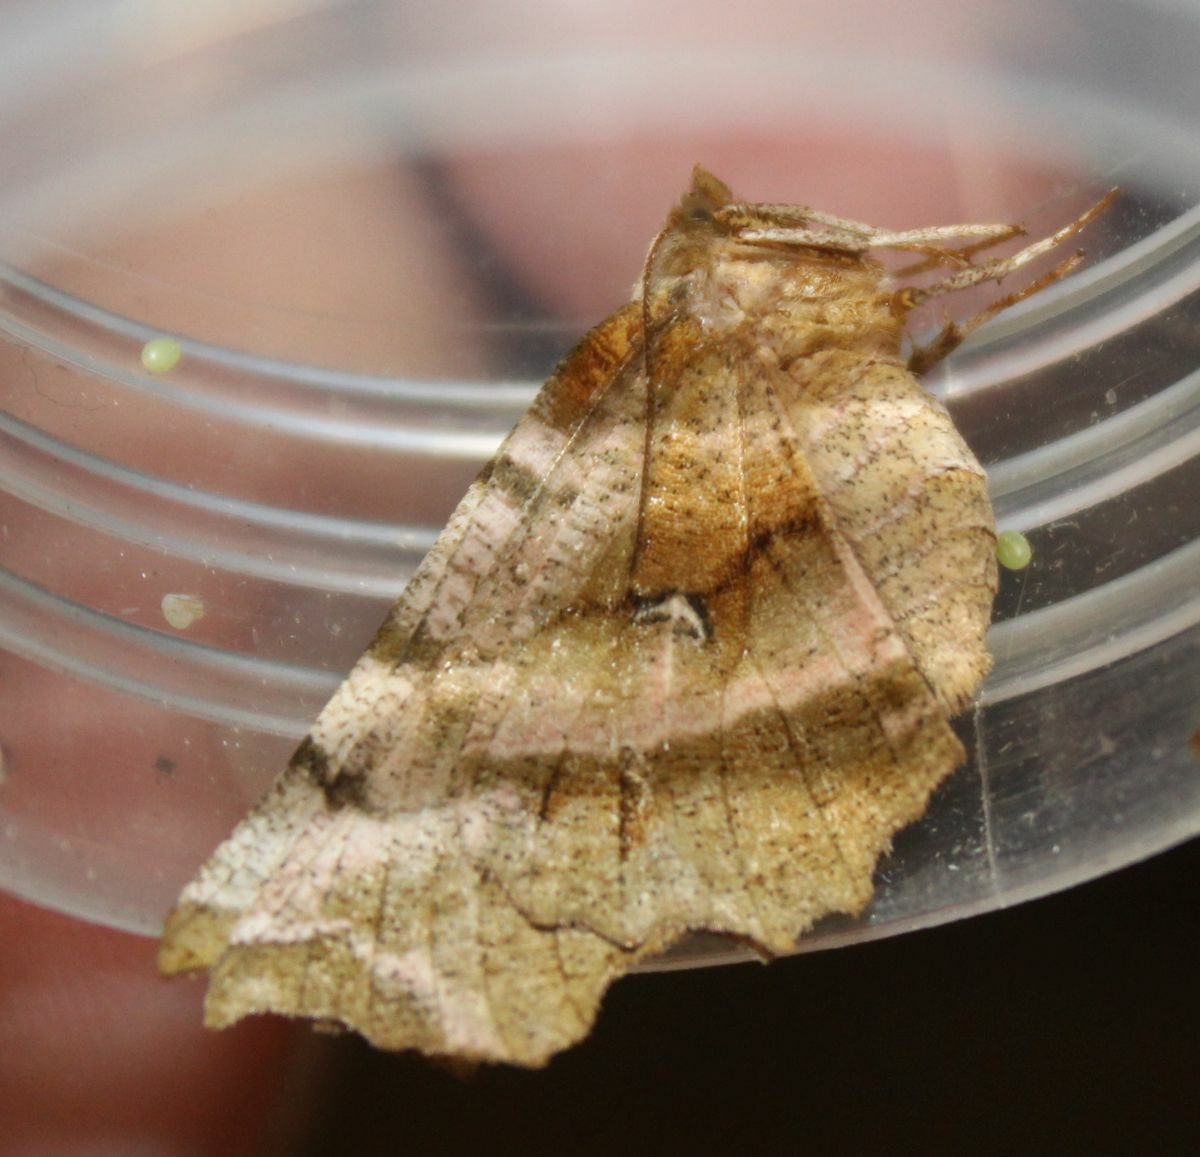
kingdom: Animalia
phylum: Arthropoda
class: Insecta
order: Lepidoptera
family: Geometridae
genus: Selenia
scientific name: Selenia dentaria
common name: Early thorn
